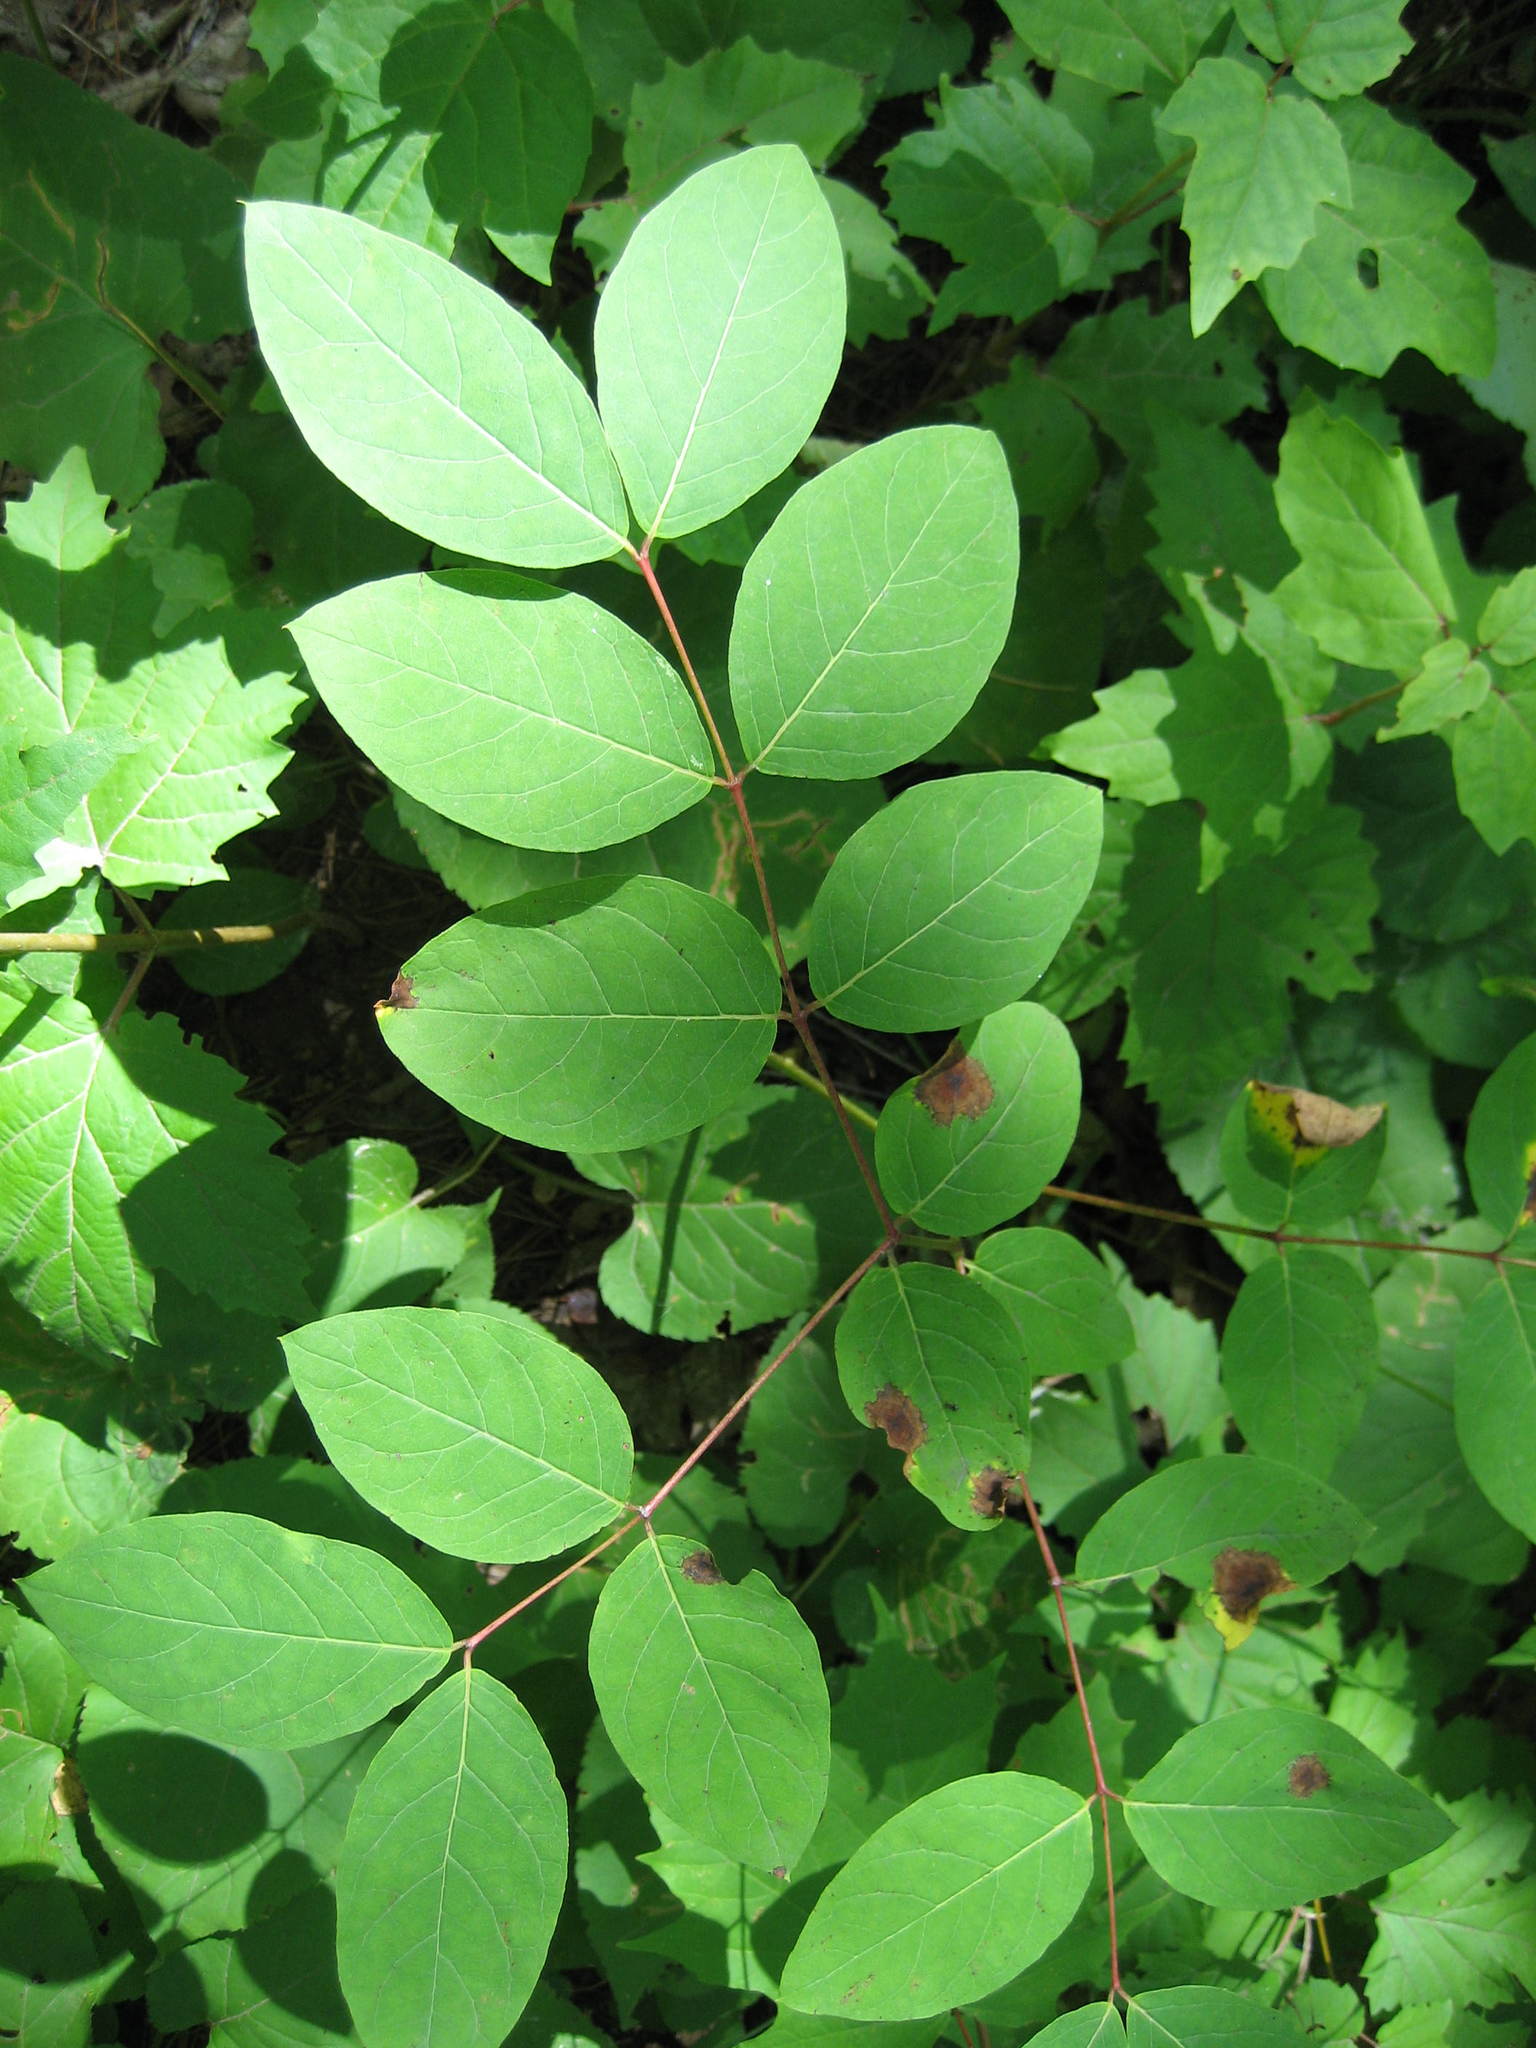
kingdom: Plantae
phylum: Tracheophyta
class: Magnoliopsida
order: Gentianales
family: Apocynaceae
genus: Apocynum
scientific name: Apocynum androsaemifolium
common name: Spreading dogbane
